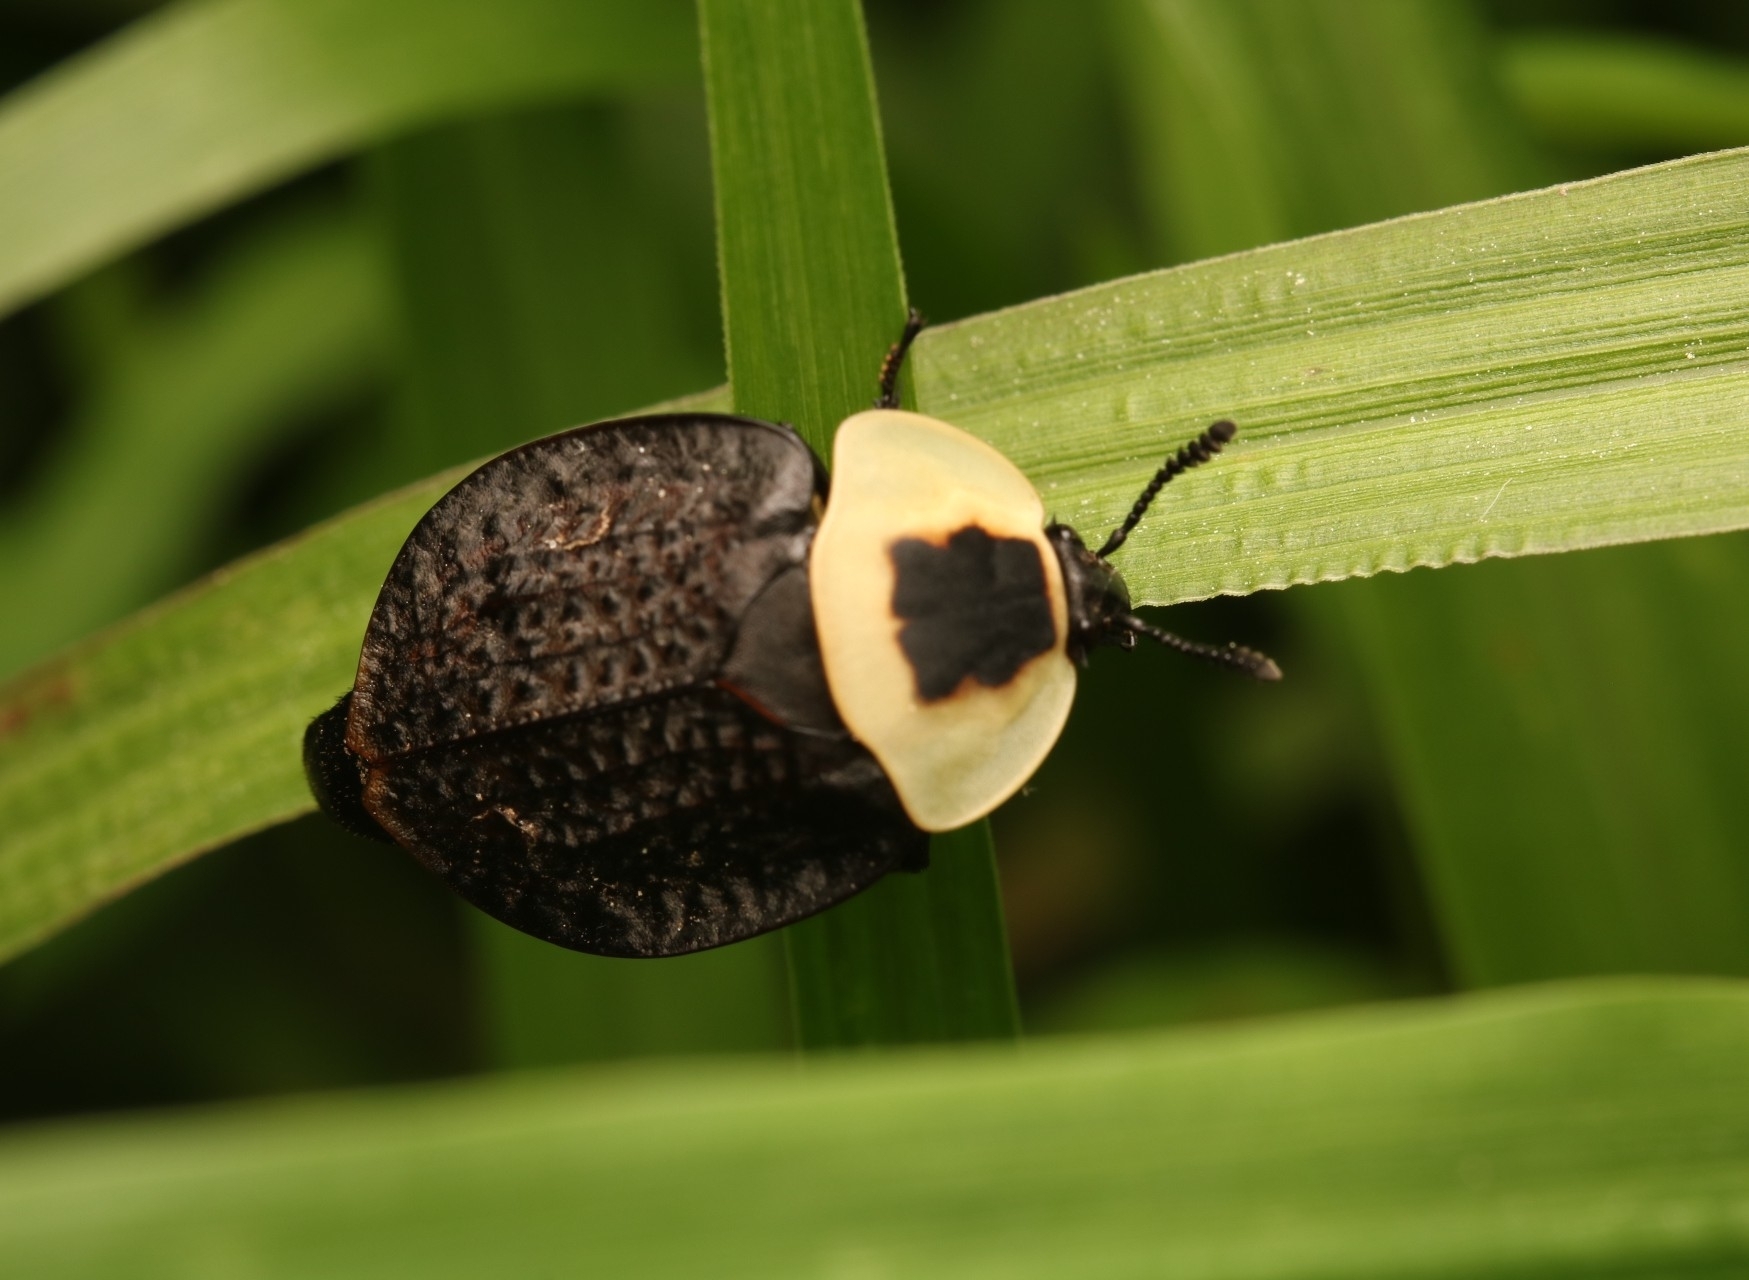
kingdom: Animalia
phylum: Arthropoda
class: Insecta
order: Coleoptera
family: Staphylinidae
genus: Necrophila
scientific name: Necrophila americana
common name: American carrion beetle
